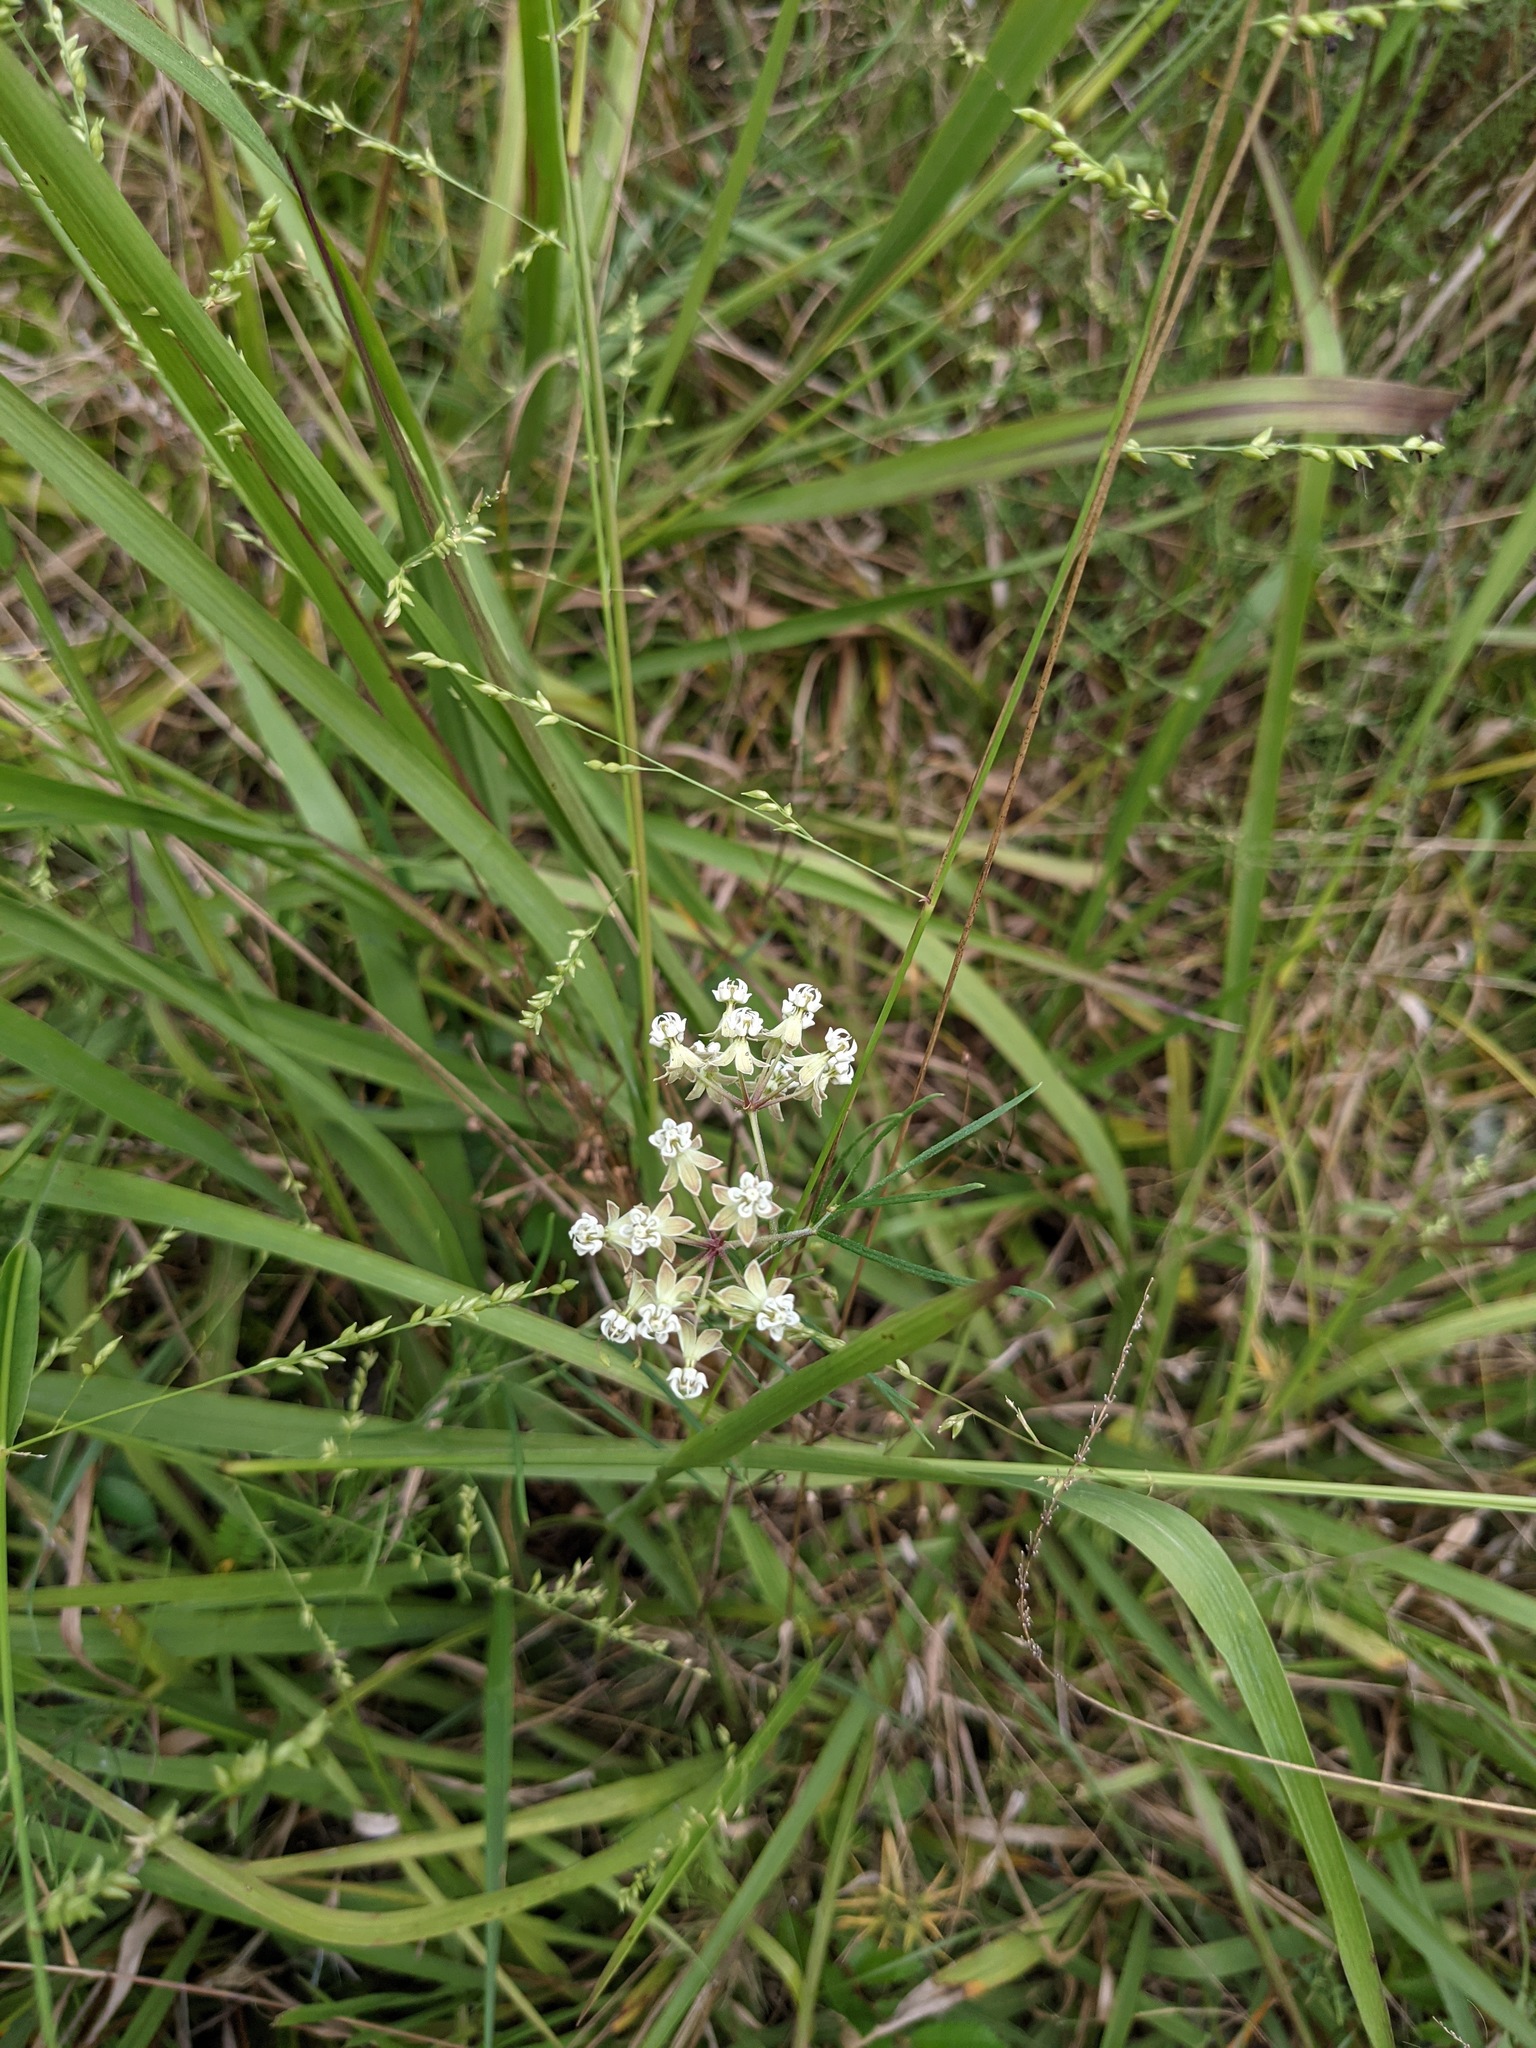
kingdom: Plantae
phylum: Tracheophyta
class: Magnoliopsida
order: Gentianales
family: Apocynaceae
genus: Asclepias
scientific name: Asclepias verticillata
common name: Eastern whorled milkweed
